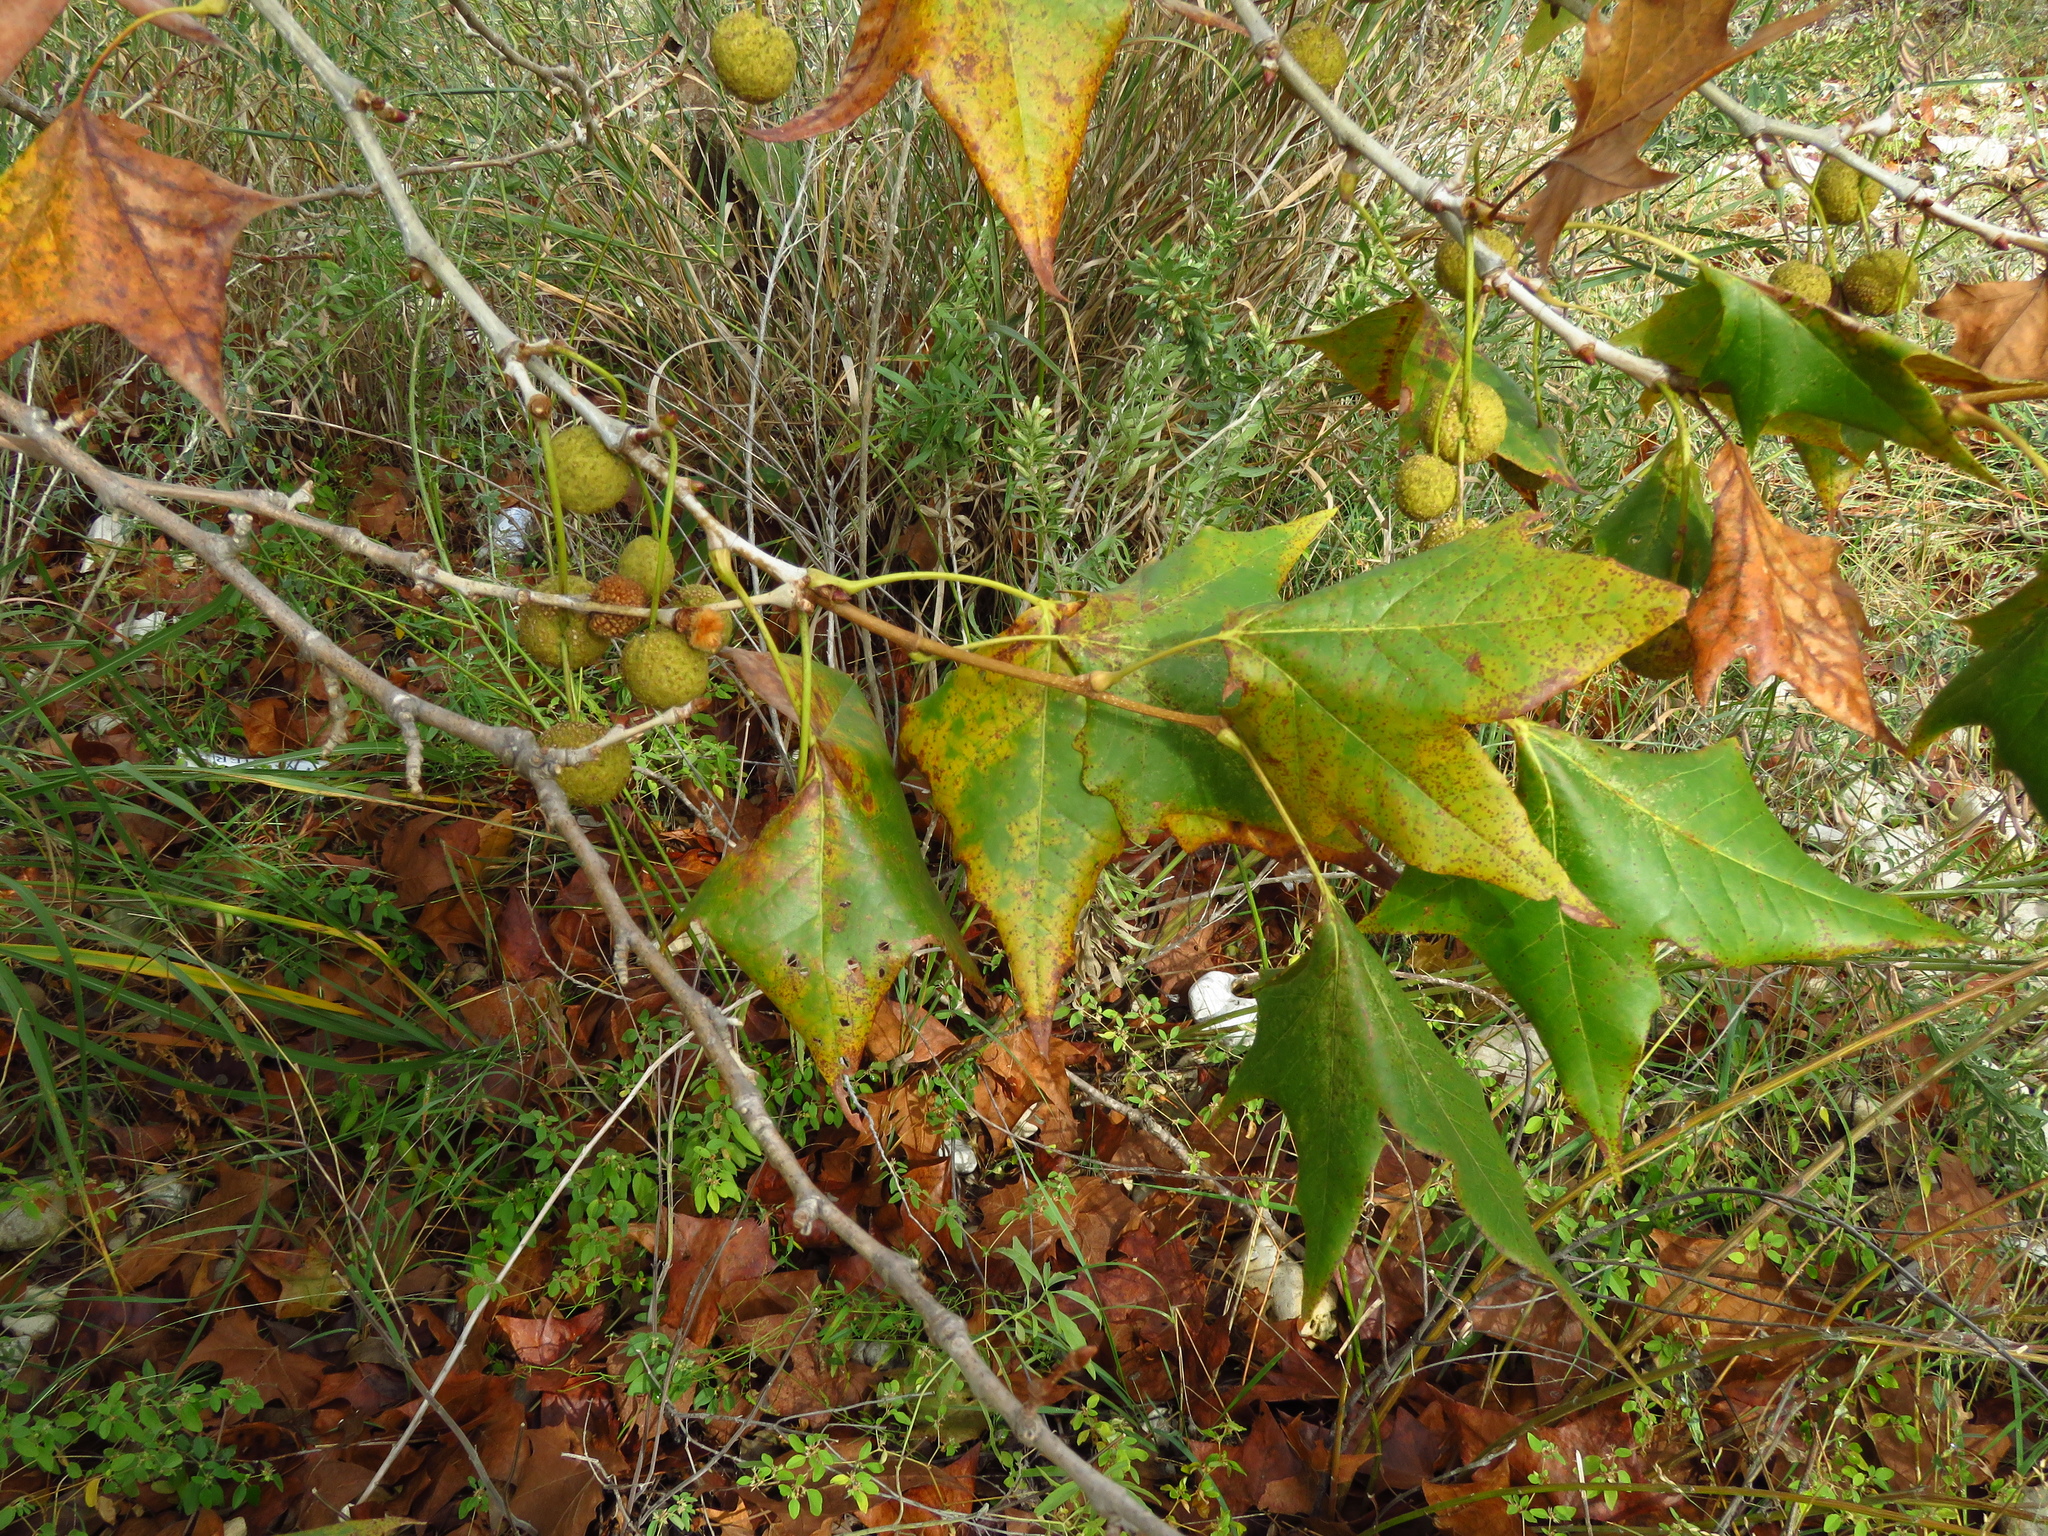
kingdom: Plantae
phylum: Tracheophyta
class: Magnoliopsida
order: Proteales
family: Platanaceae
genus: Platanus
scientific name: Platanus occidentalis
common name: American sycamore
